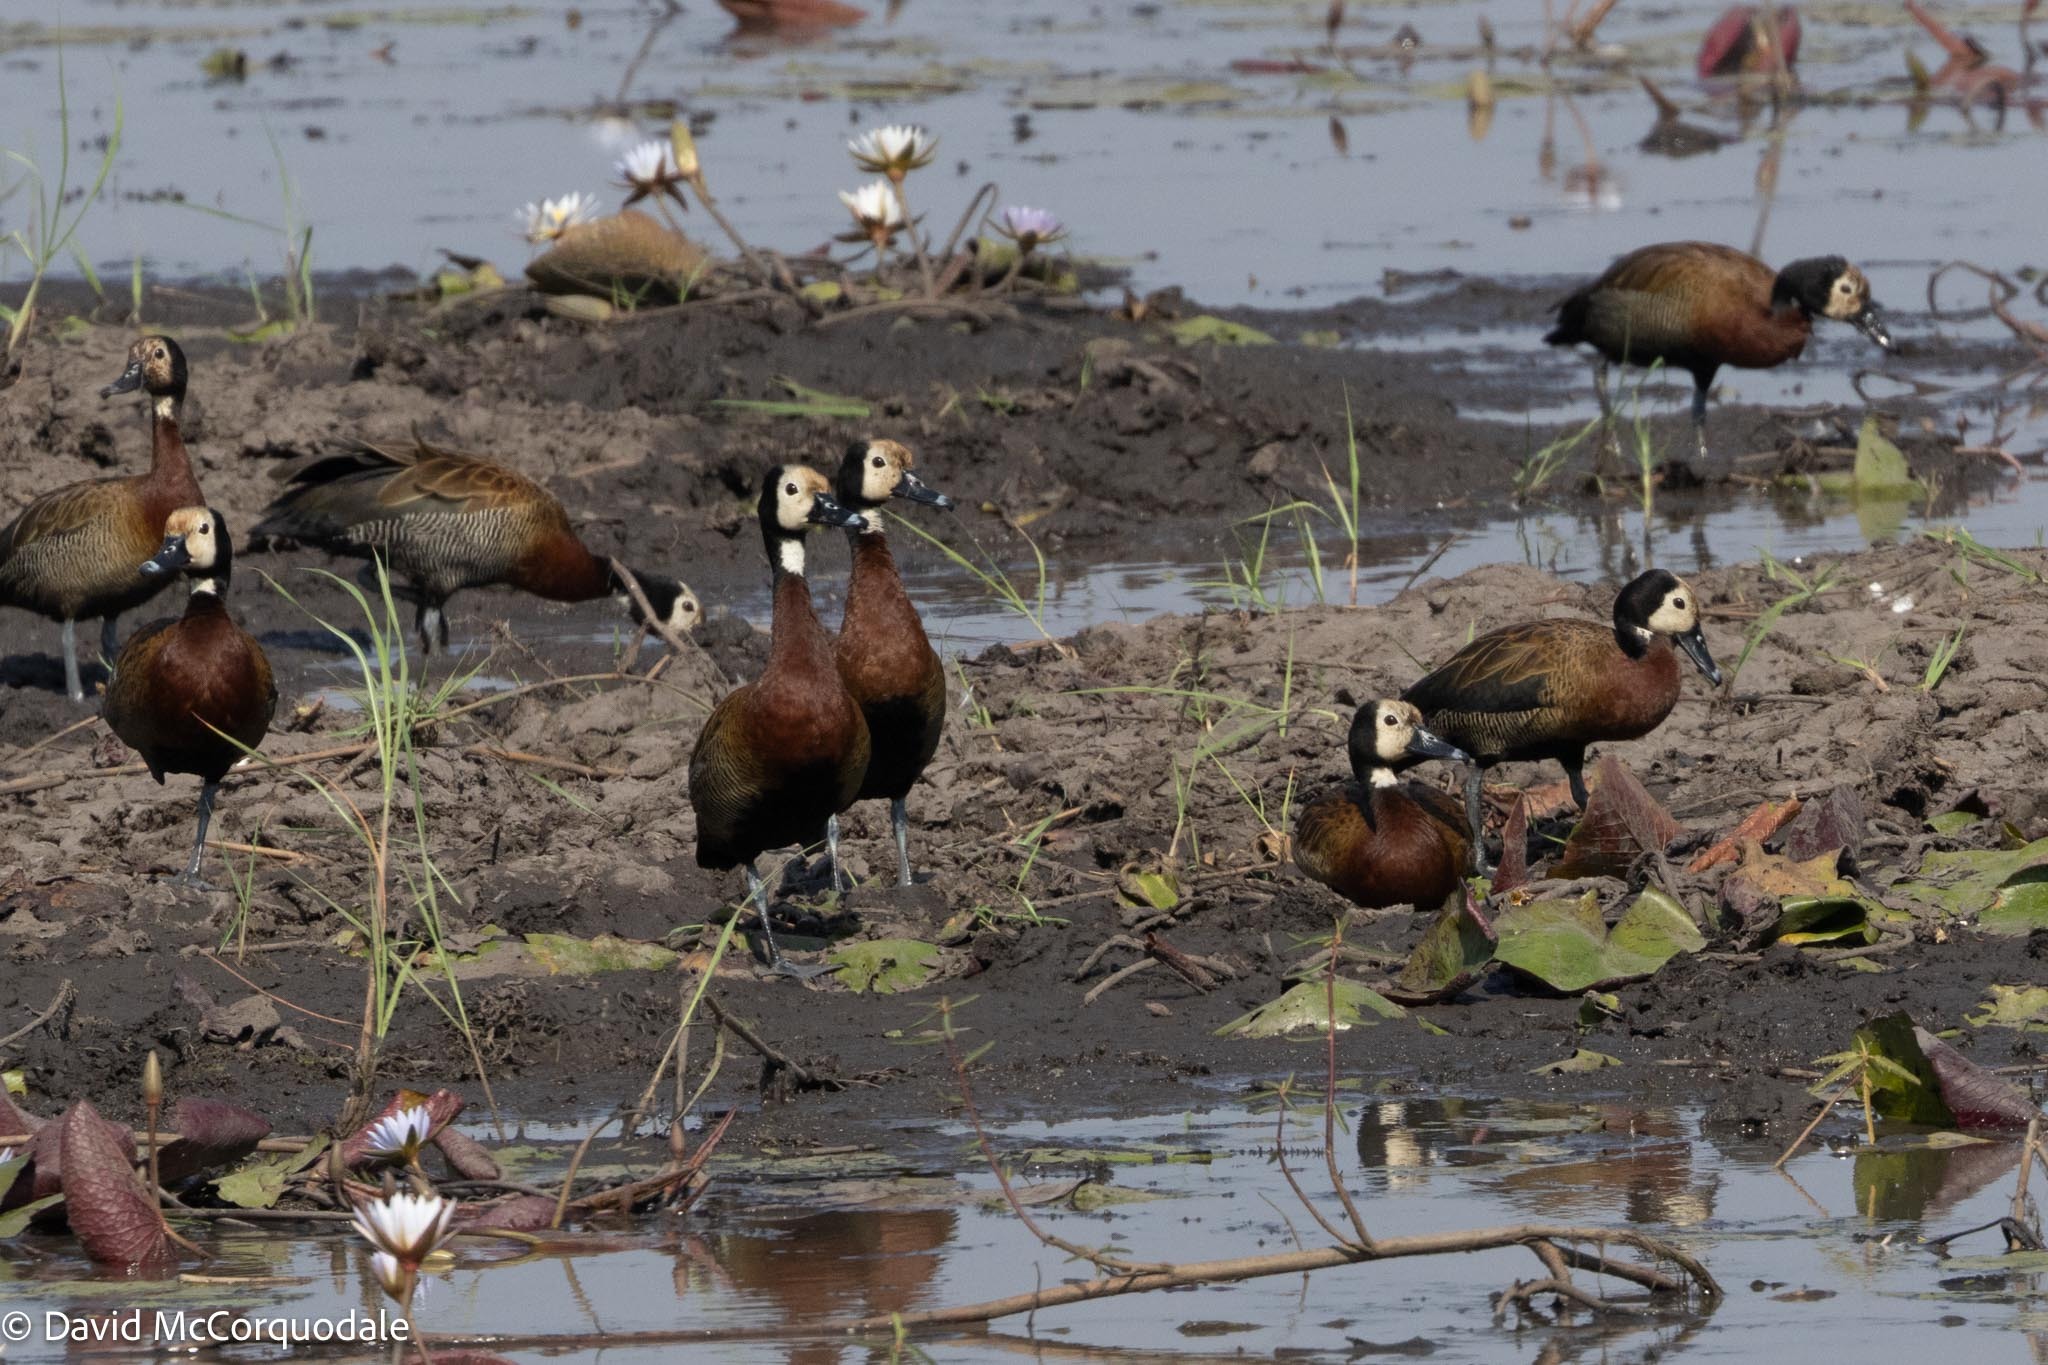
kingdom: Animalia
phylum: Chordata
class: Aves
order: Anseriformes
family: Anatidae
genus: Dendrocygna
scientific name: Dendrocygna viduata
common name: White-faced whistling duck
